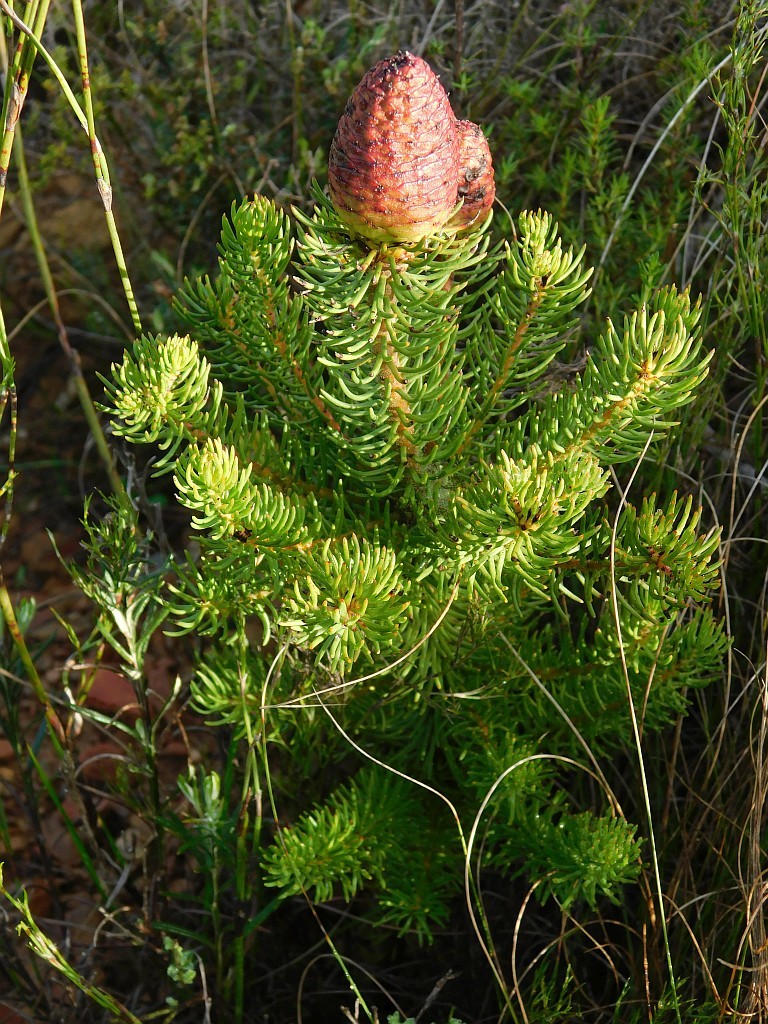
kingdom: Plantae
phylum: Tracheophyta
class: Magnoliopsida
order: Proteales
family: Proteaceae
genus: Leucadendron
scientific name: Leucadendron teretifolium
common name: Needle-leaf conebush
